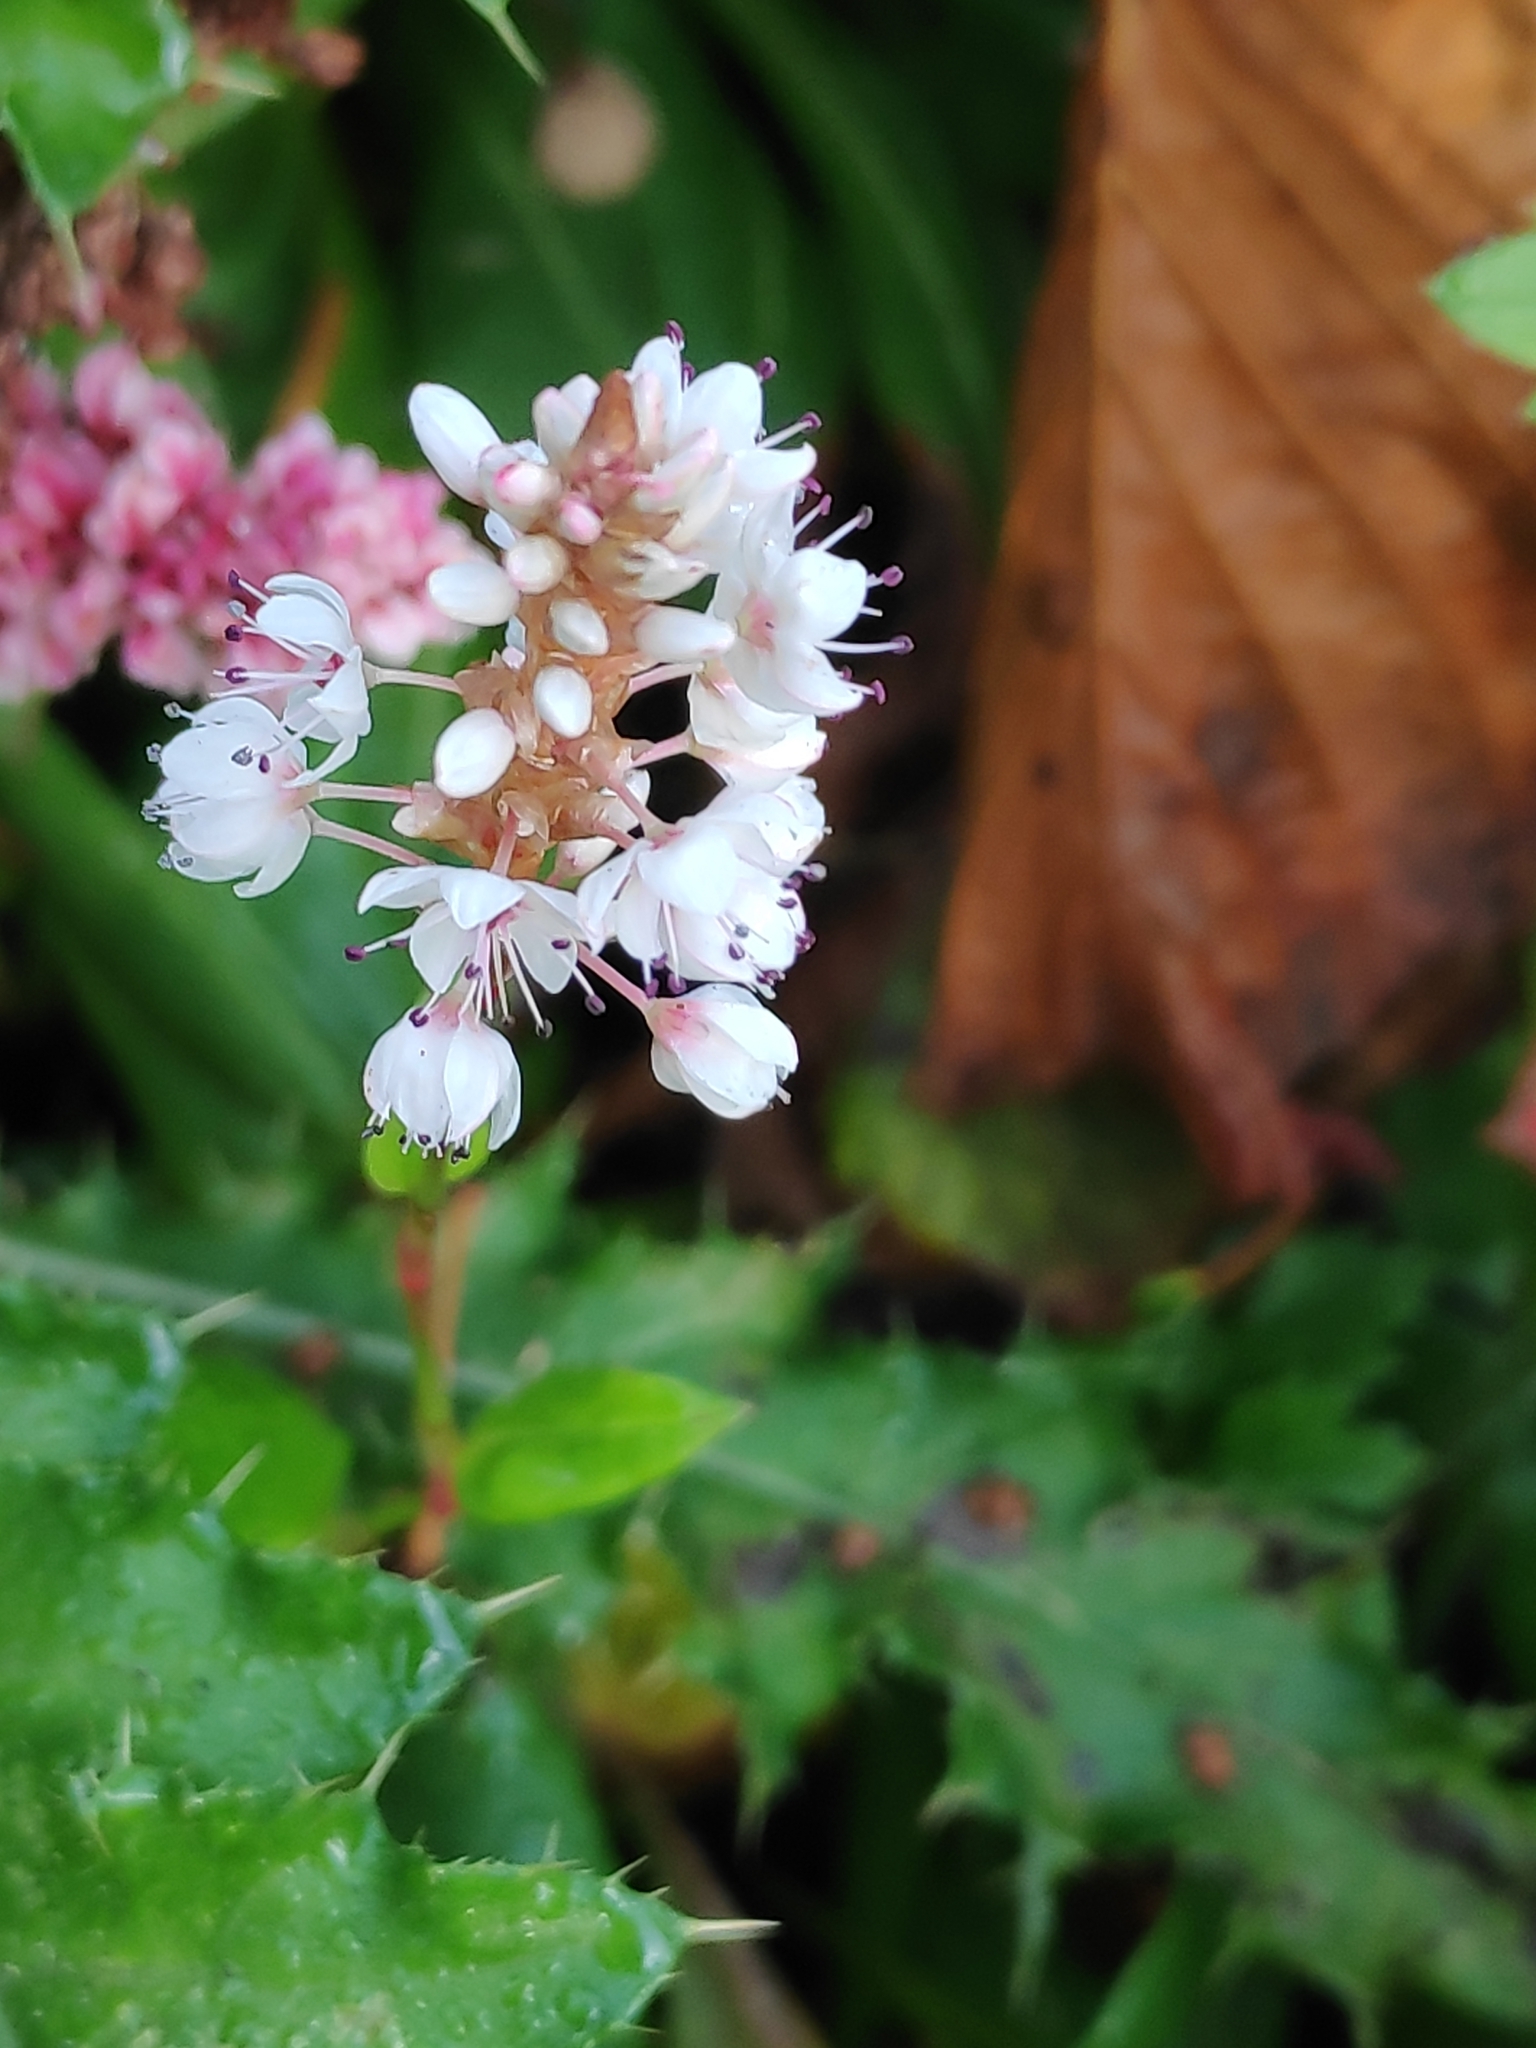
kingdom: Plantae
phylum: Tracheophyta
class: Magnoliopsida
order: Caryophyllales
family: Polygonaceae
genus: Bistorta
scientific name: Bistorta officinalis
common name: Common bistort
